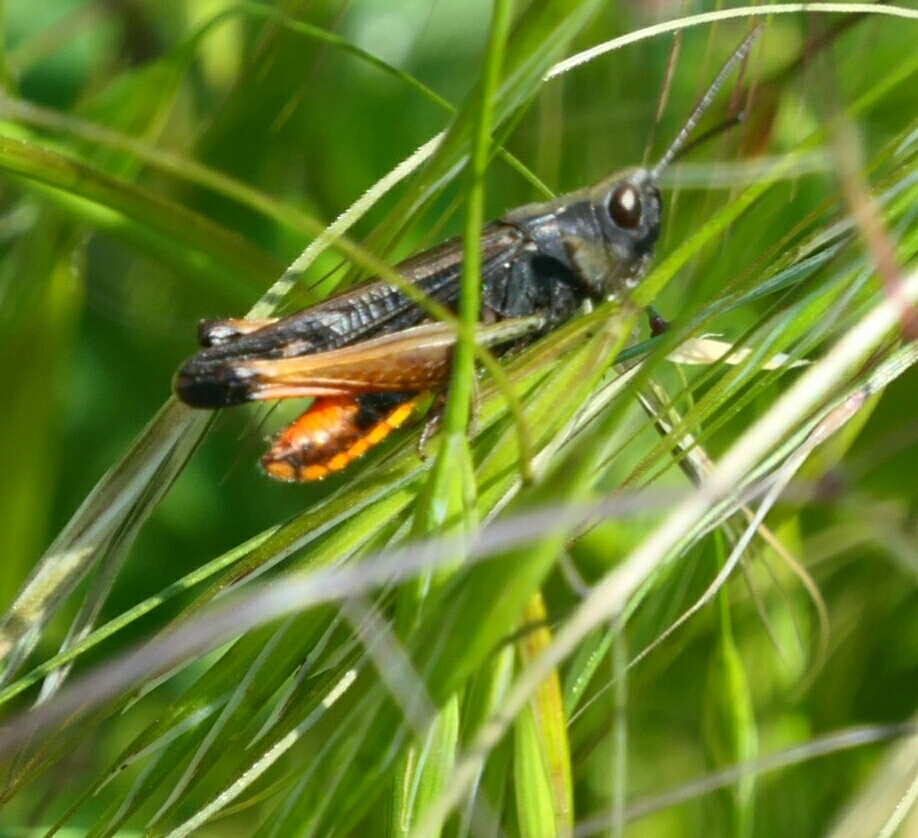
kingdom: Animalia
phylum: Arthropoda
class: Insecta
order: Orthoptera
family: Acrididae
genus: Omocestus
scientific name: Omocestus rufipes
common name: Woodland grasshopper
